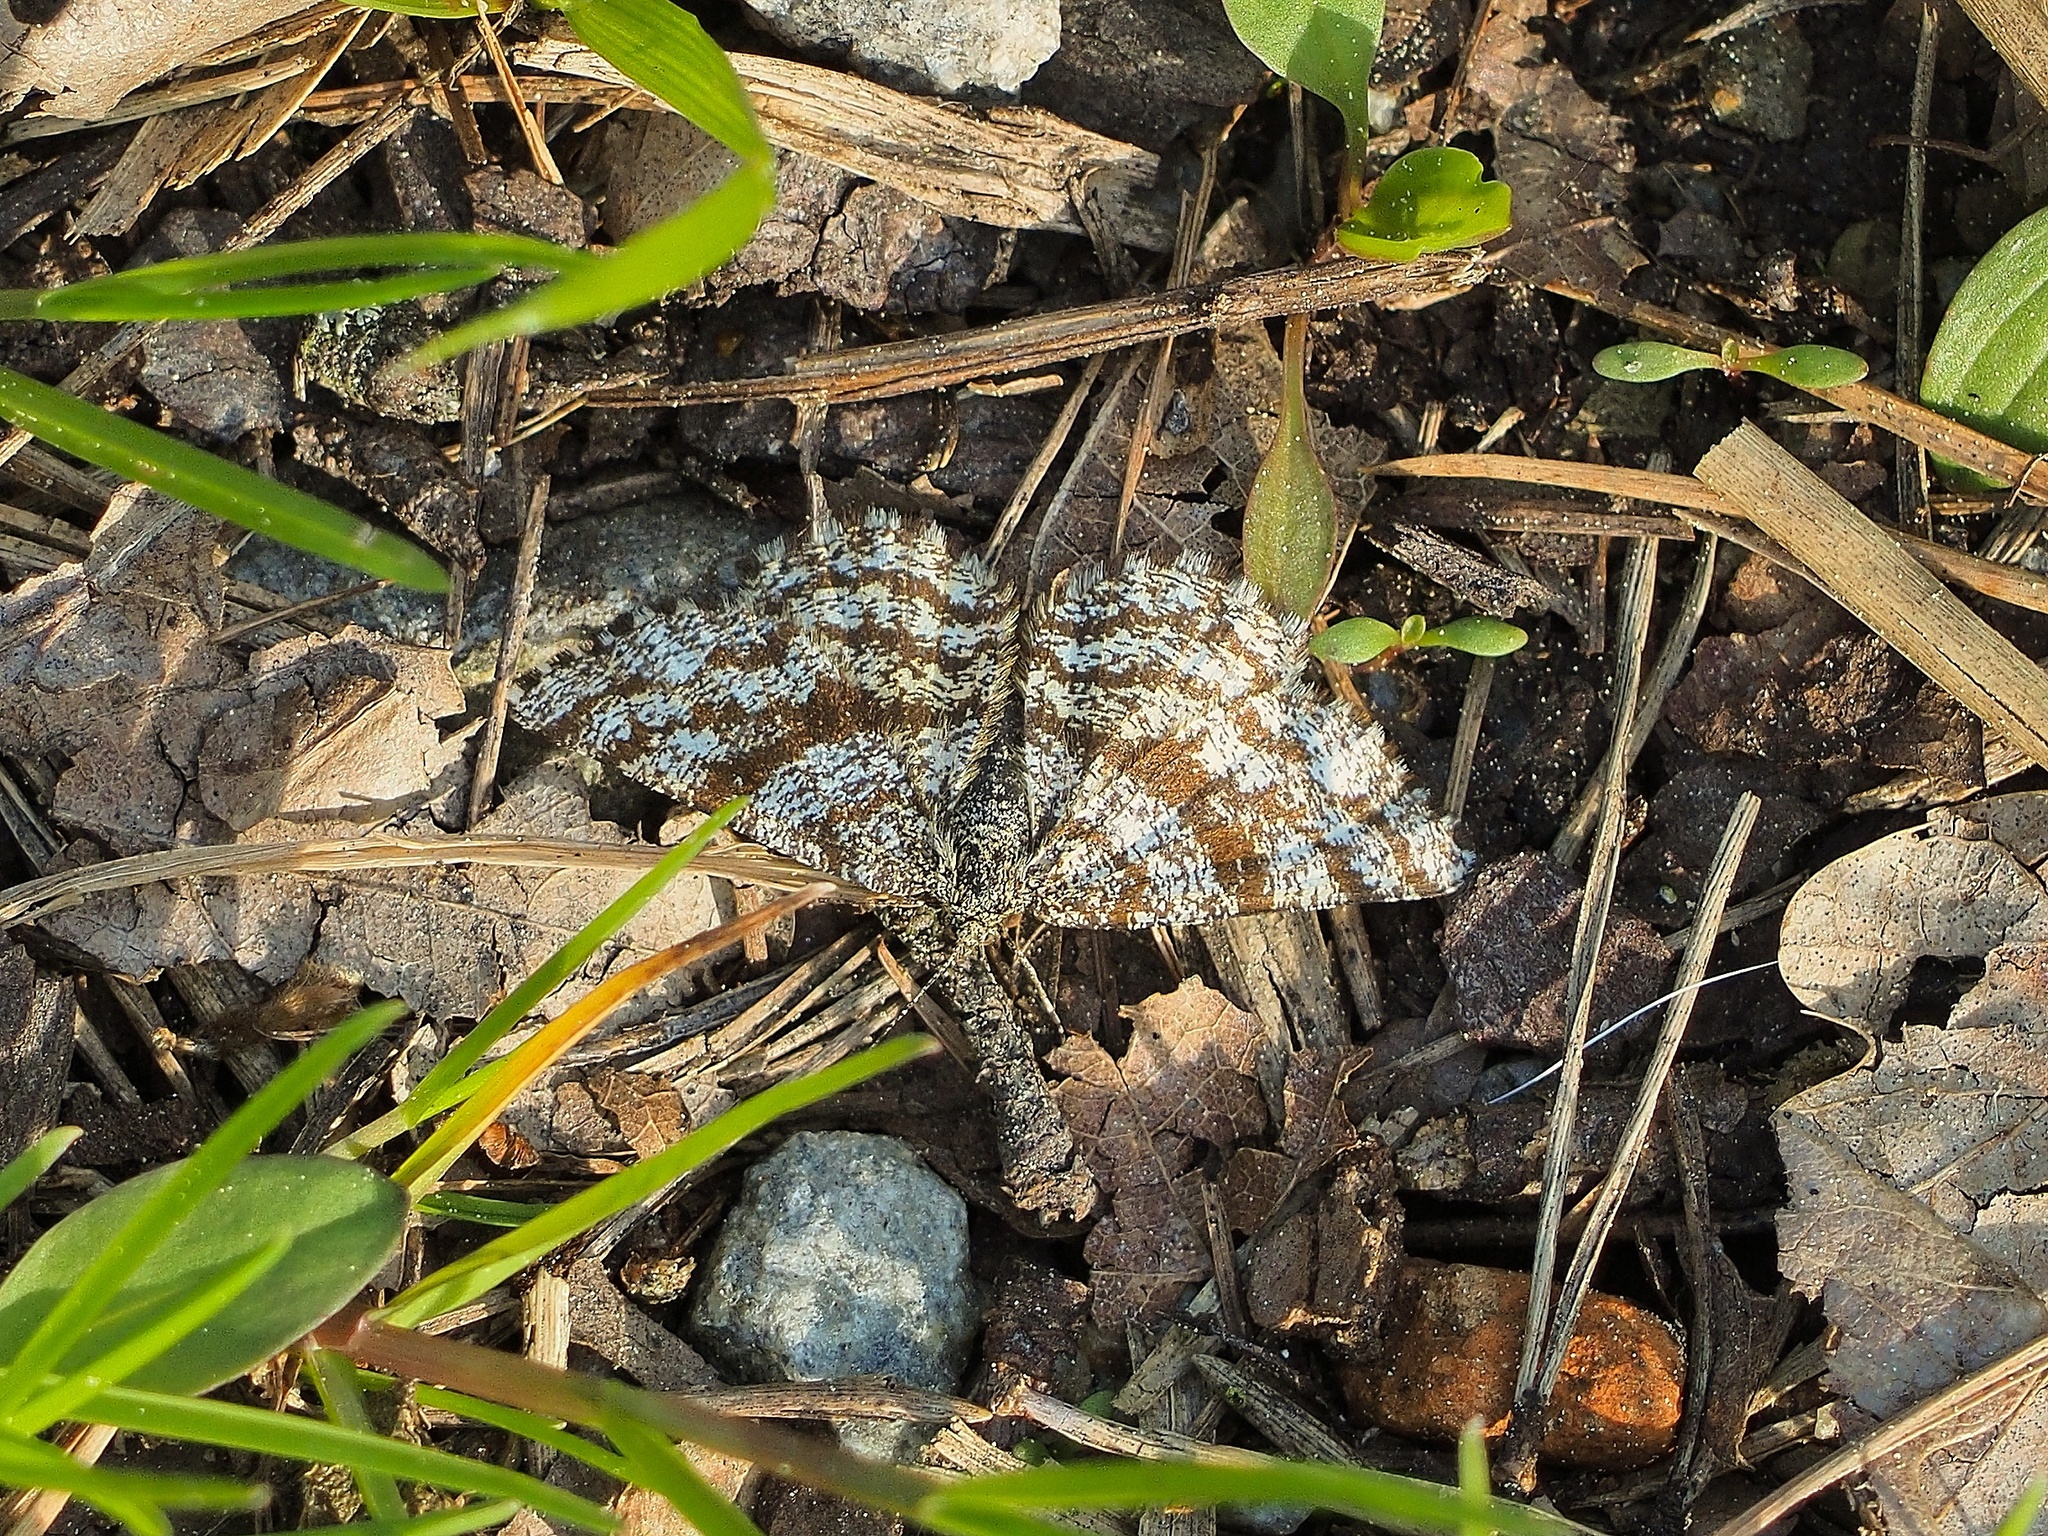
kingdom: Animalia
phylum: Arthropoda
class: Insecta
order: Lepidoptera
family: Geometridae
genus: Ematurga
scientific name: Ematurga atomaria
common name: Common heath
